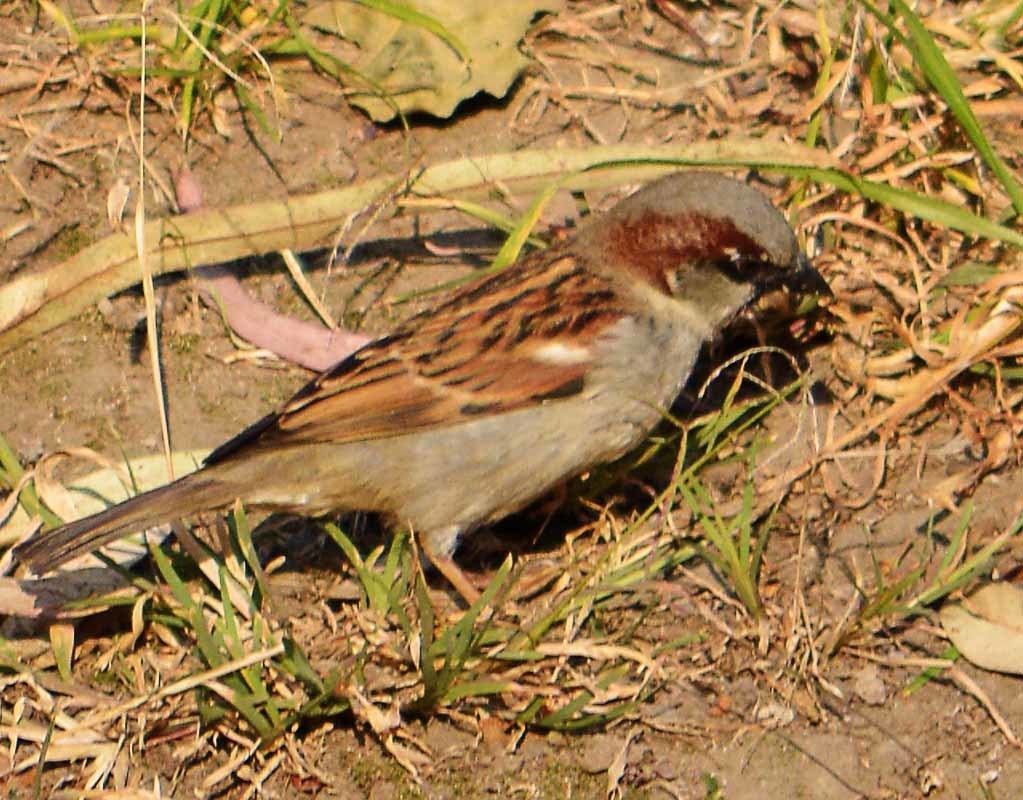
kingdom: Animalia
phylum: Chordata
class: Aves
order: Passeriformes
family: Passeridae
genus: Passer
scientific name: Passer domesticus
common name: House sparrow
